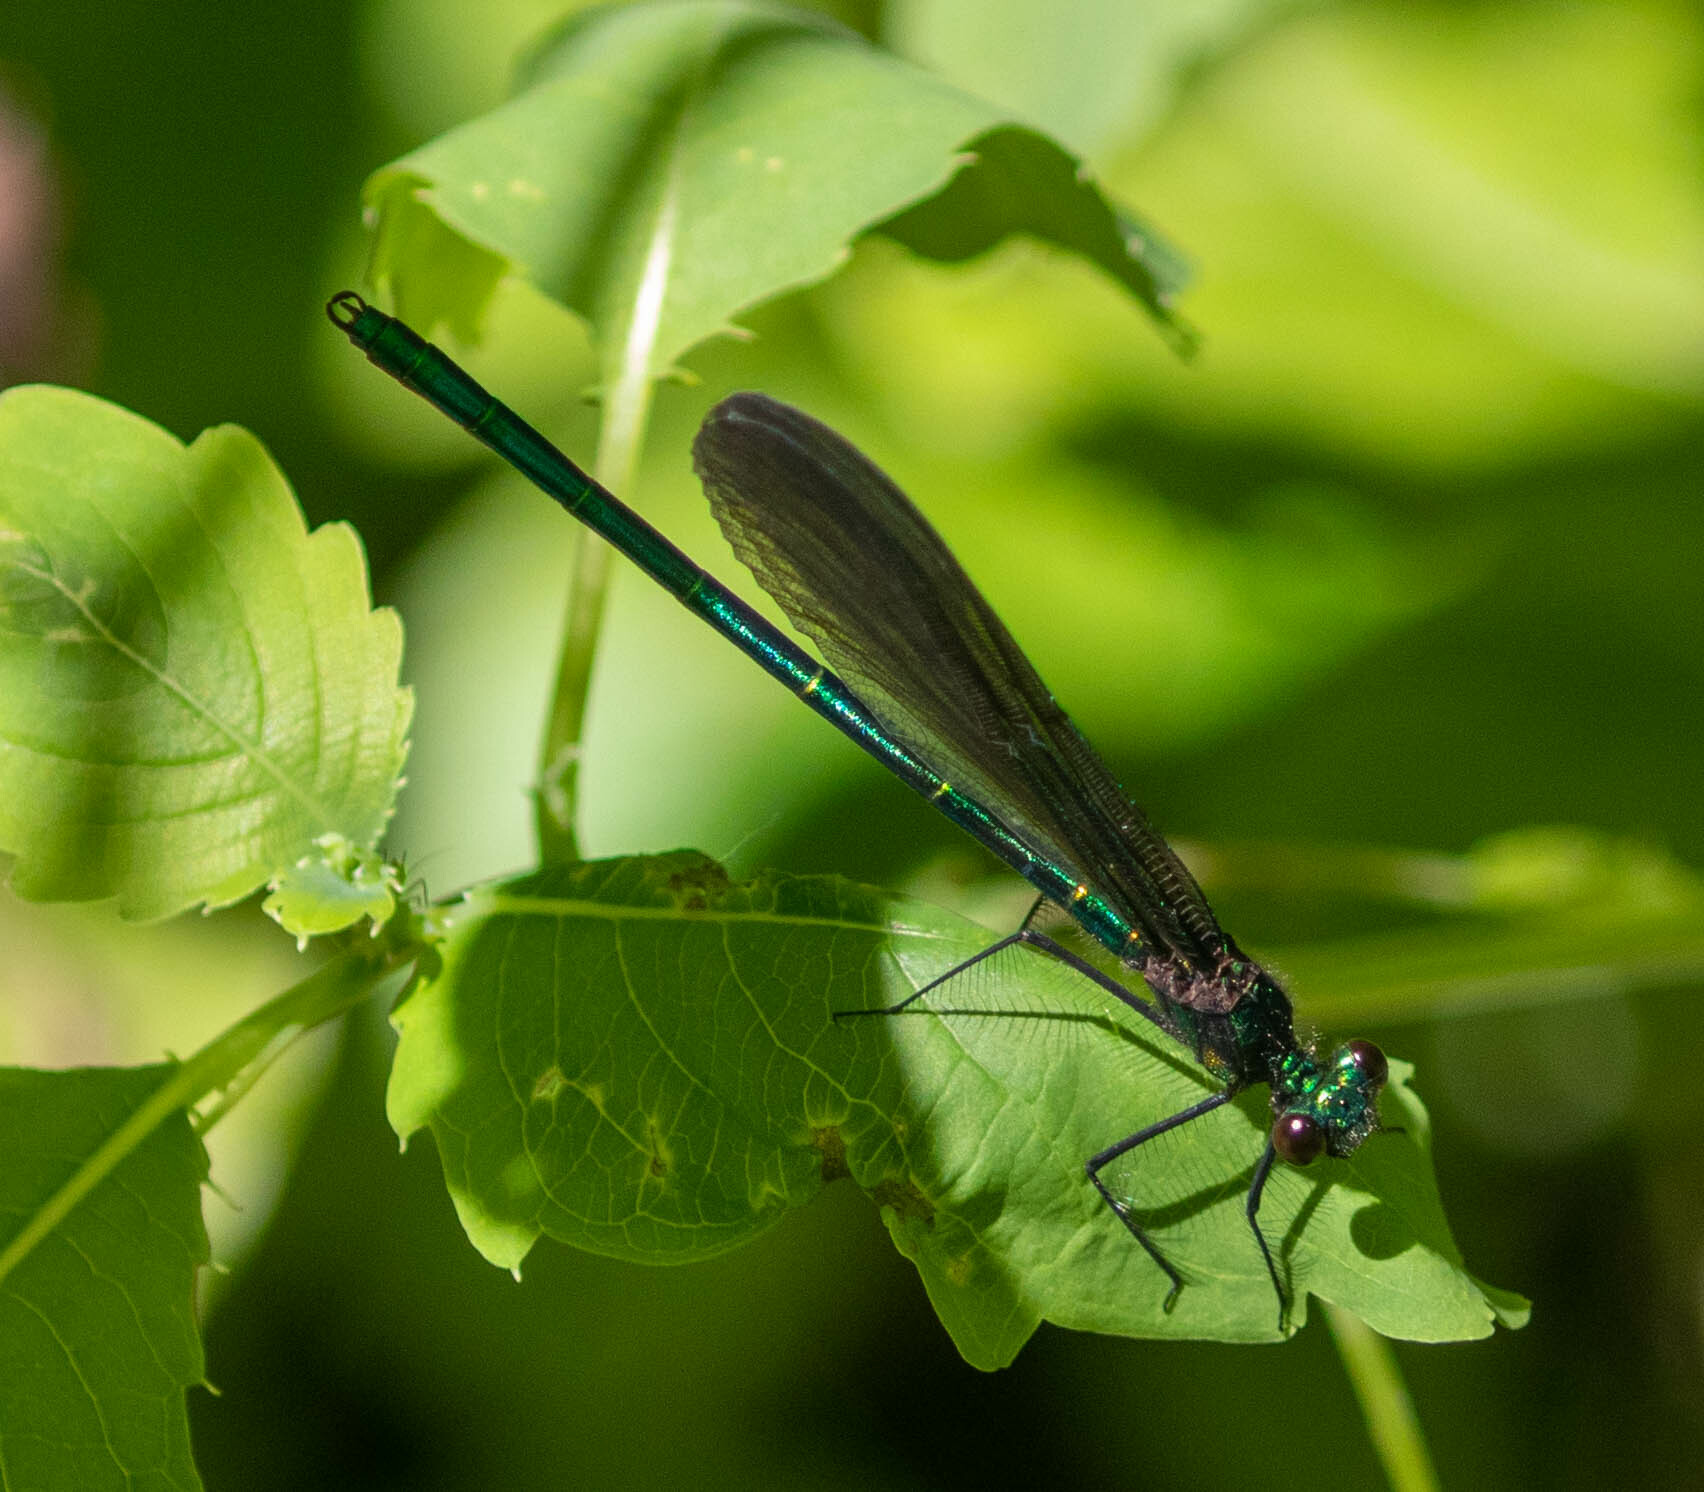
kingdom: Animalia
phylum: Arthropoda
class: Insecta
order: Odonata
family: Calopterygidae
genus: Calopteryx
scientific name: Calopteryx maculata
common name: Ebony jewelwing
